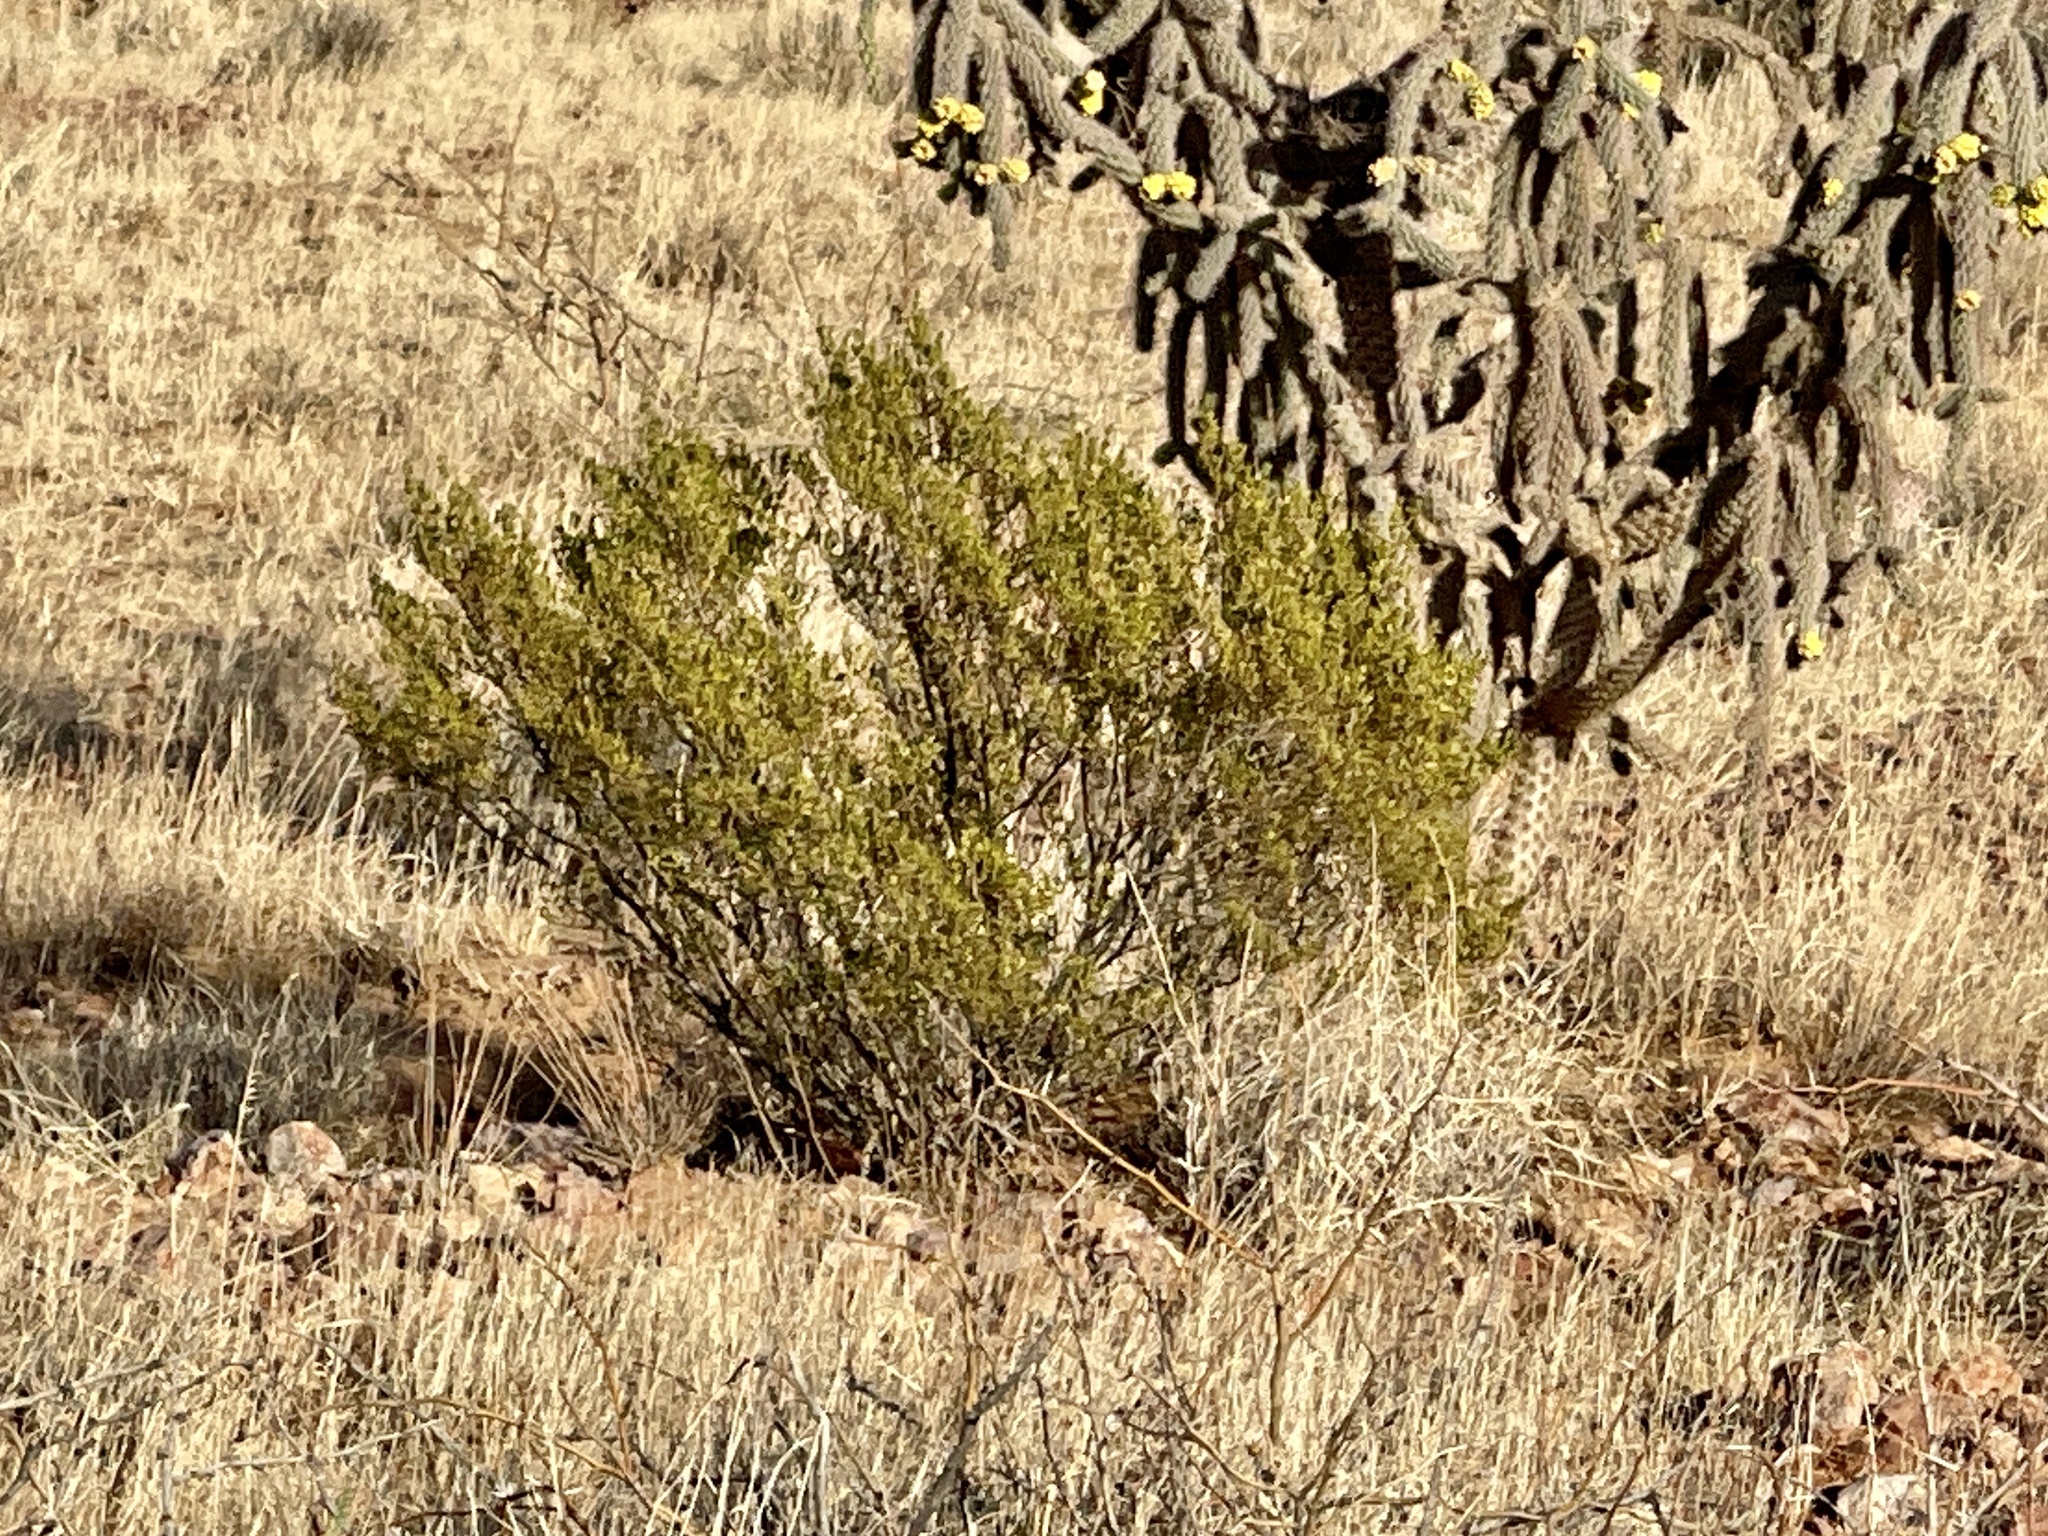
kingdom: Plantae
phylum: Tracheophyta
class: Magnoliopsida
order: Zygophyllales
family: Zygophyllaceae
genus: Larrea
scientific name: Larrea tridentata
